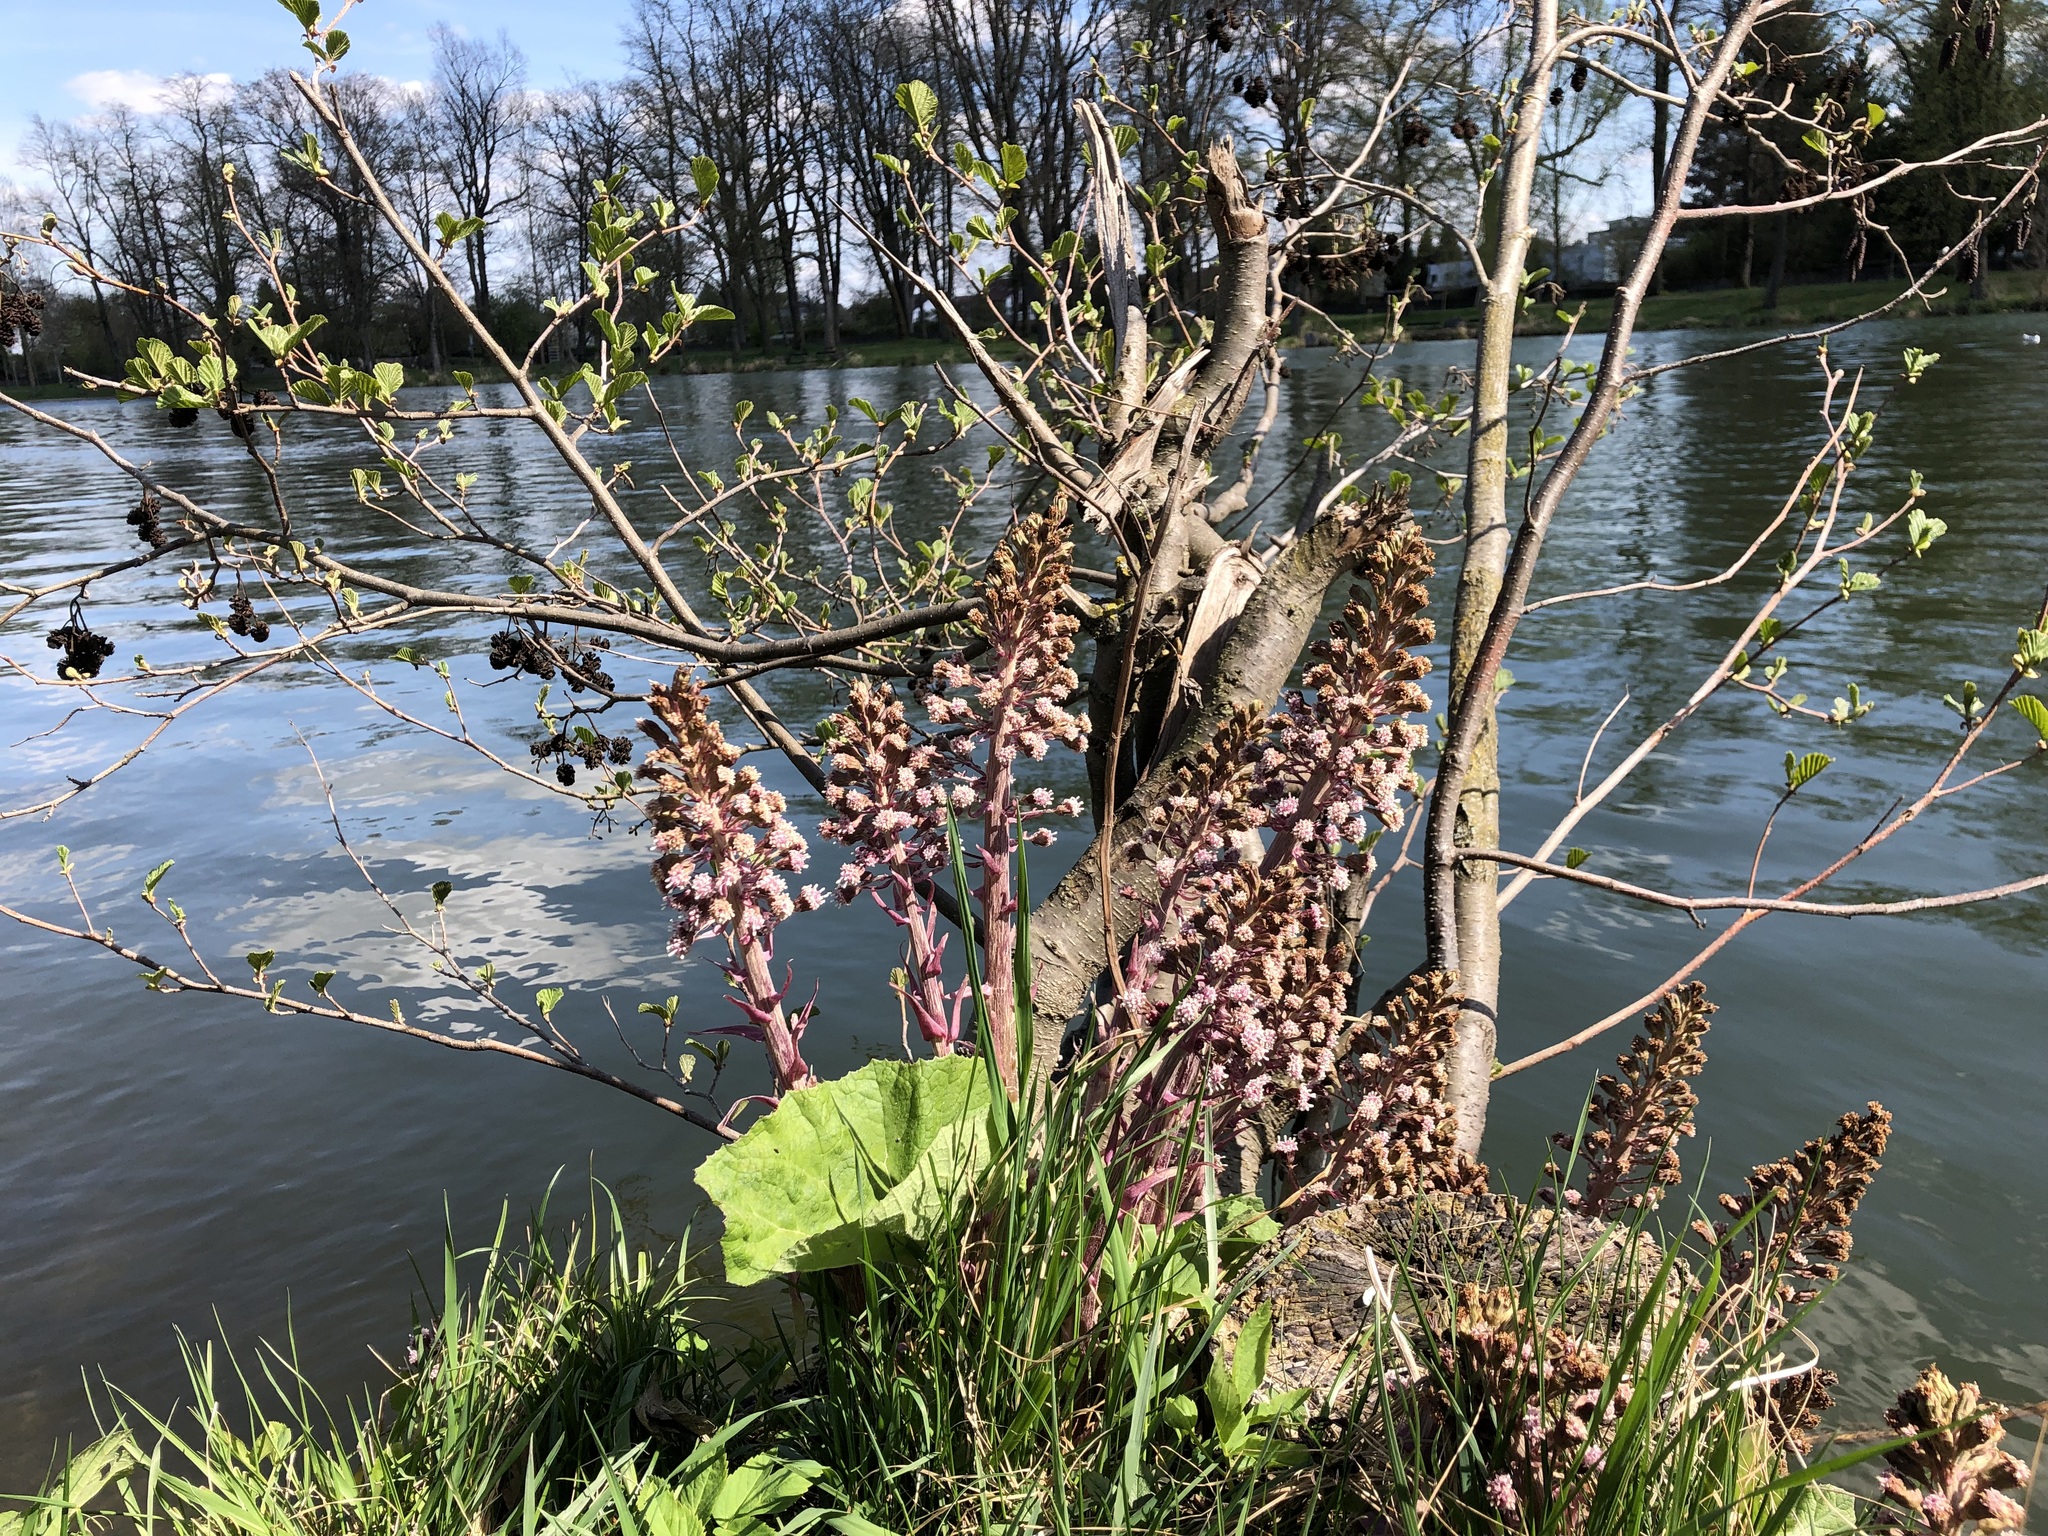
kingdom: Plantae
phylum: Tracheophyta
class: Magnoliopsida
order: Asterales
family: Asteraceae
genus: Petasites
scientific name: Petasites hybridus
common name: Butterbur
